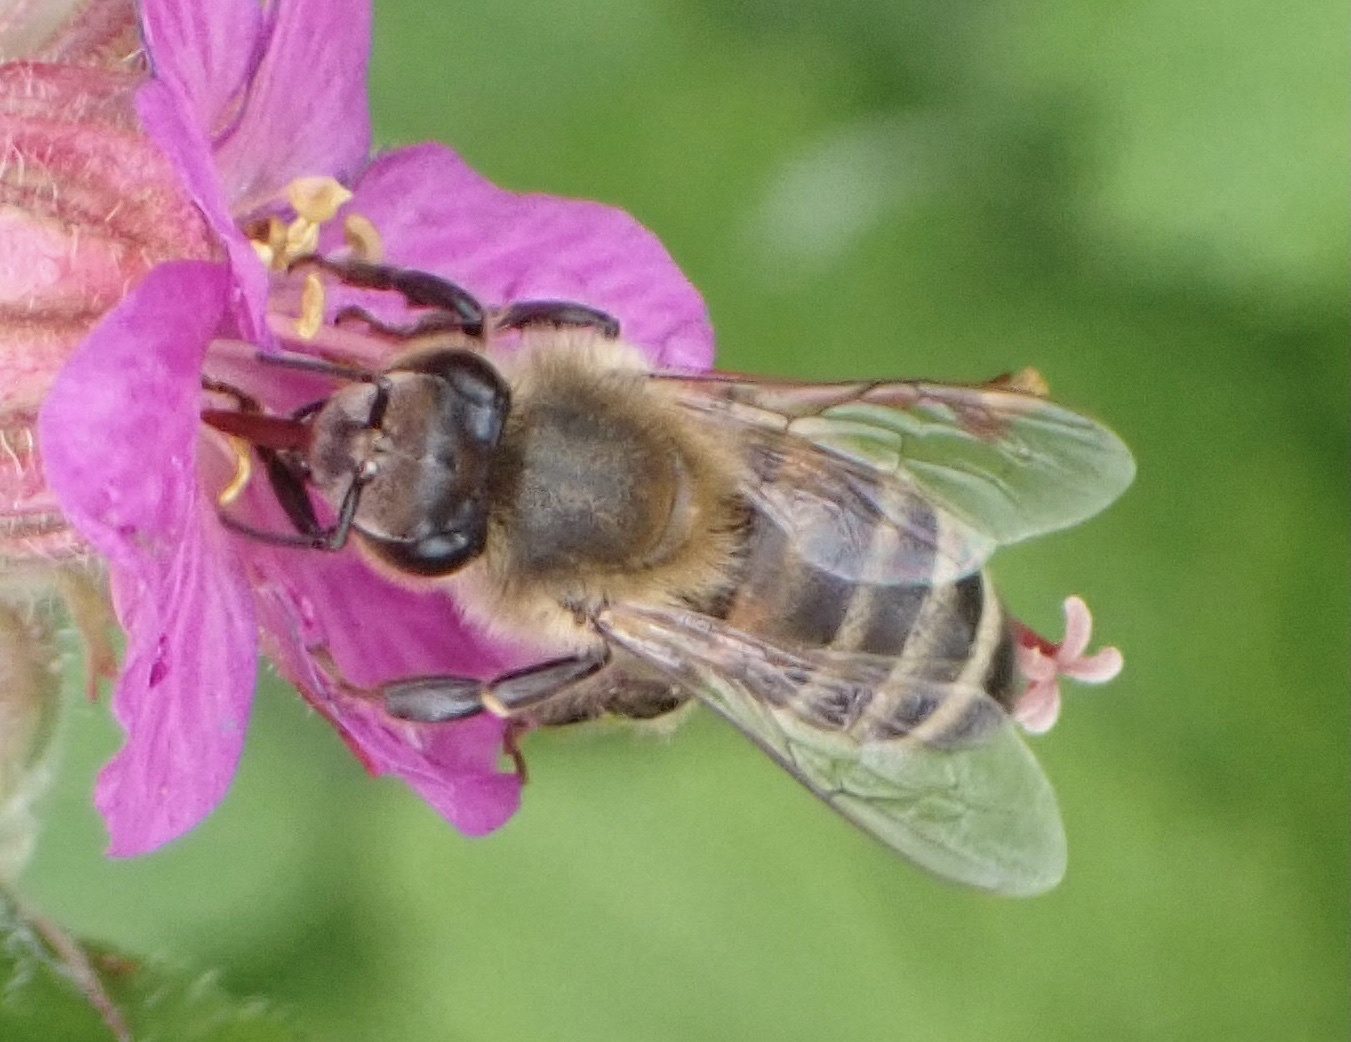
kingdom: Animalia
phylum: Arthropoda
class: Insecta
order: Hymenoptera
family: Apidae
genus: Apis
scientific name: Apis mellifera
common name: Honey bee
